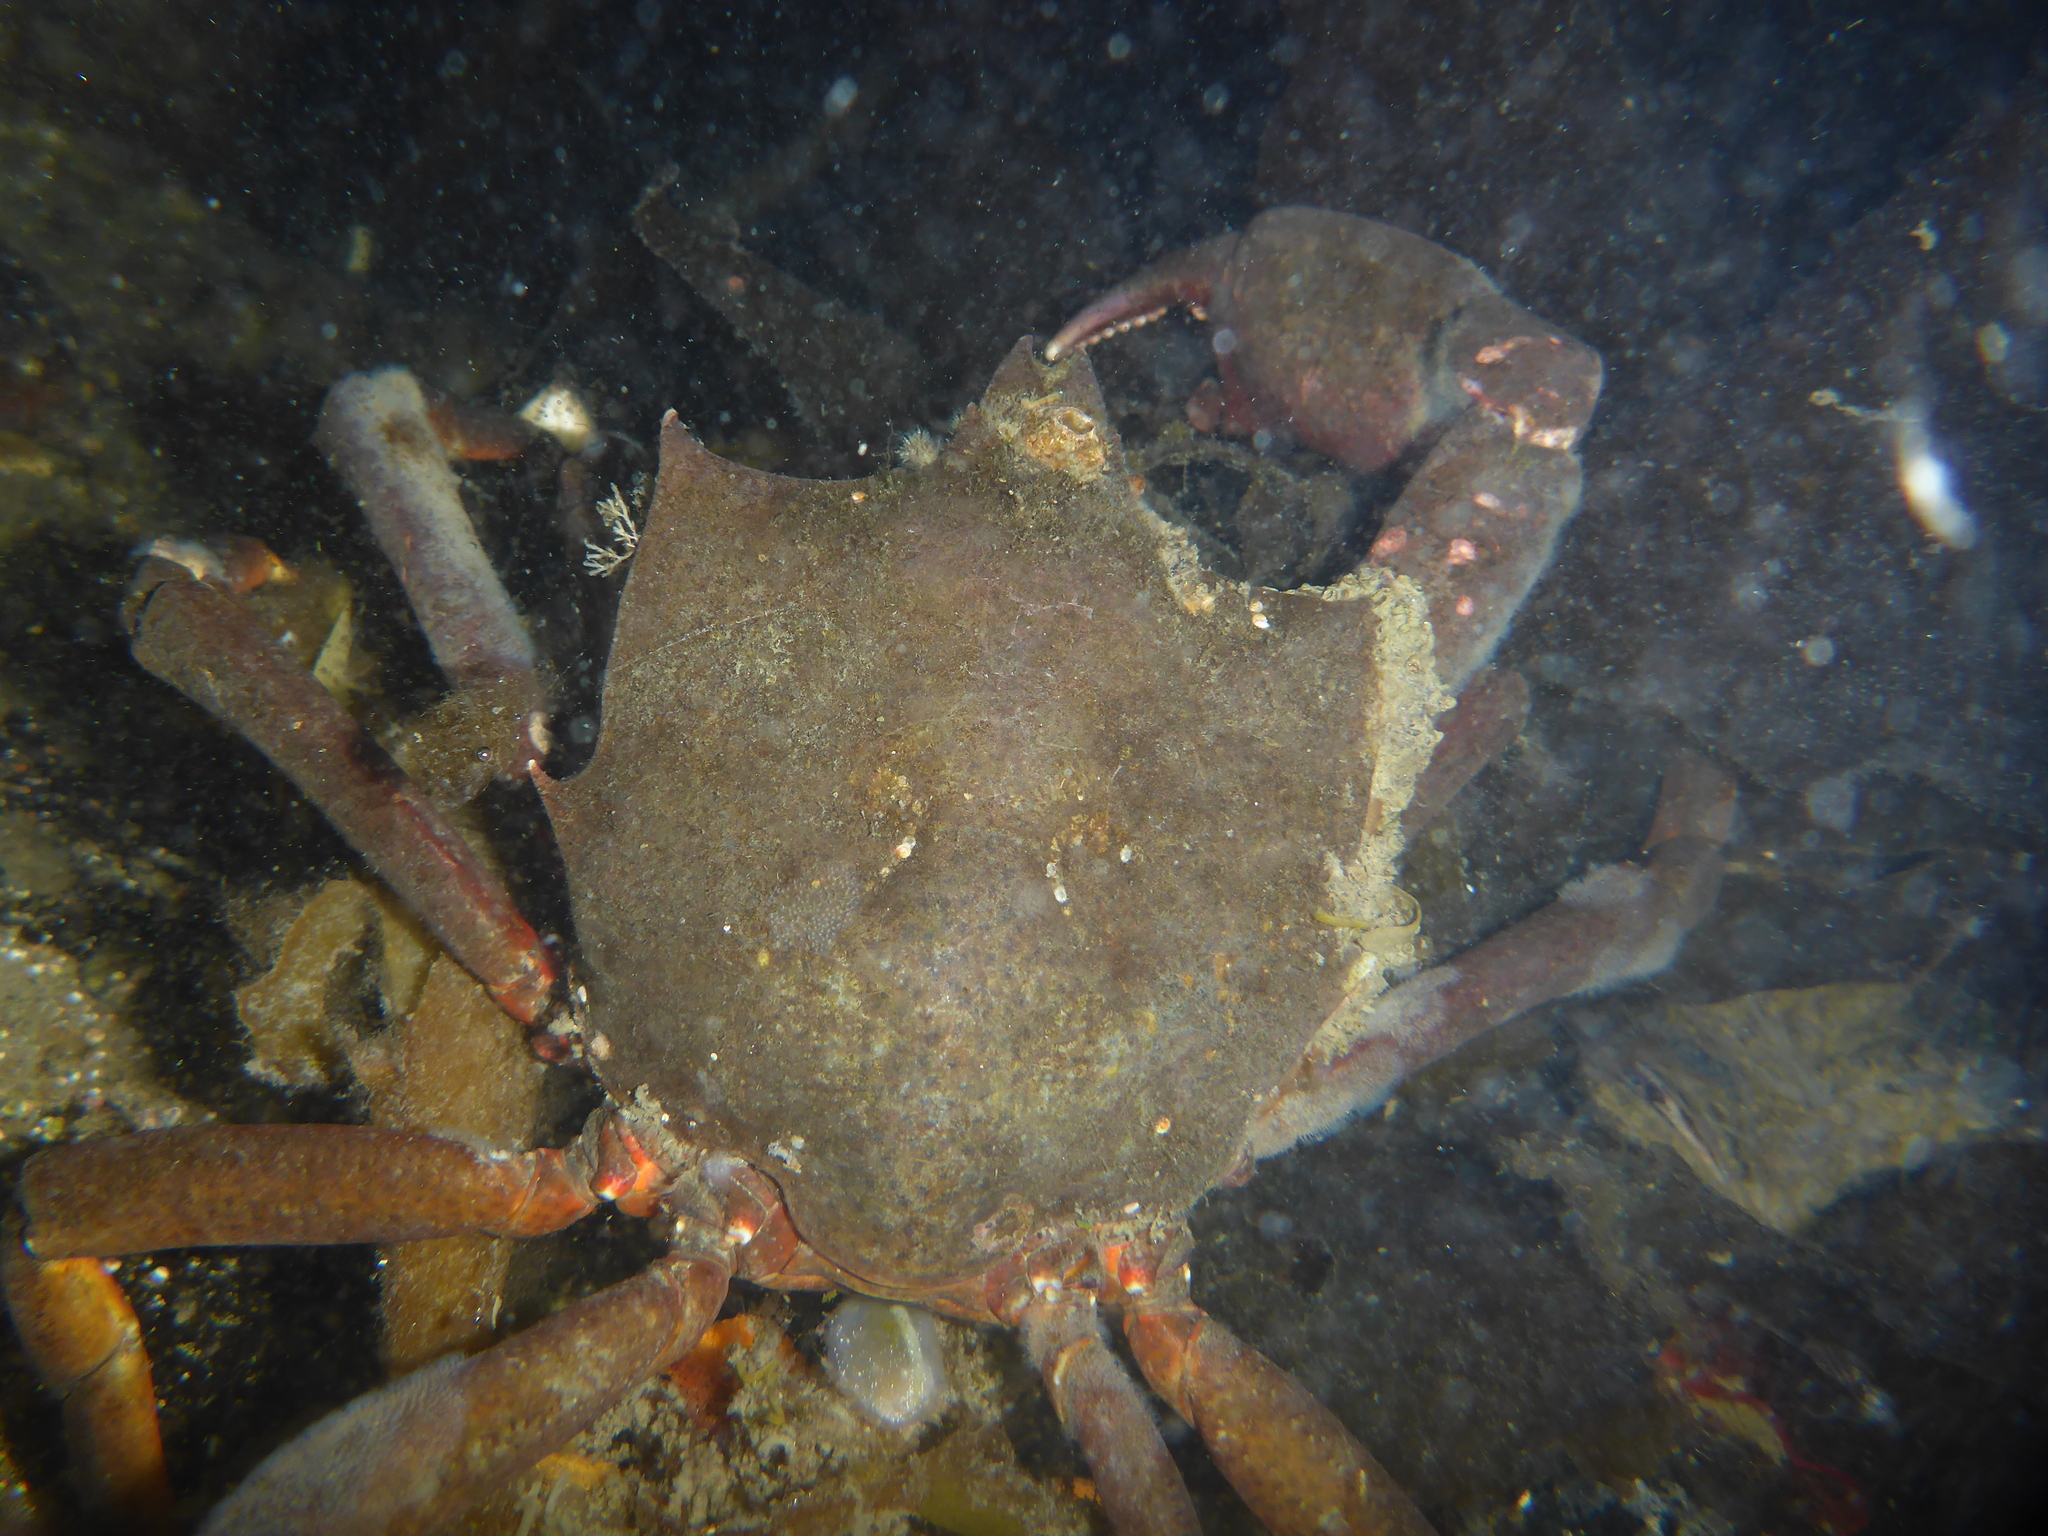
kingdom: Animalia
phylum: Arthropoda
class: Malacostraca
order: Decapoda
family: Epialtidae
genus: Pugettia
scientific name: Pugettia producta
